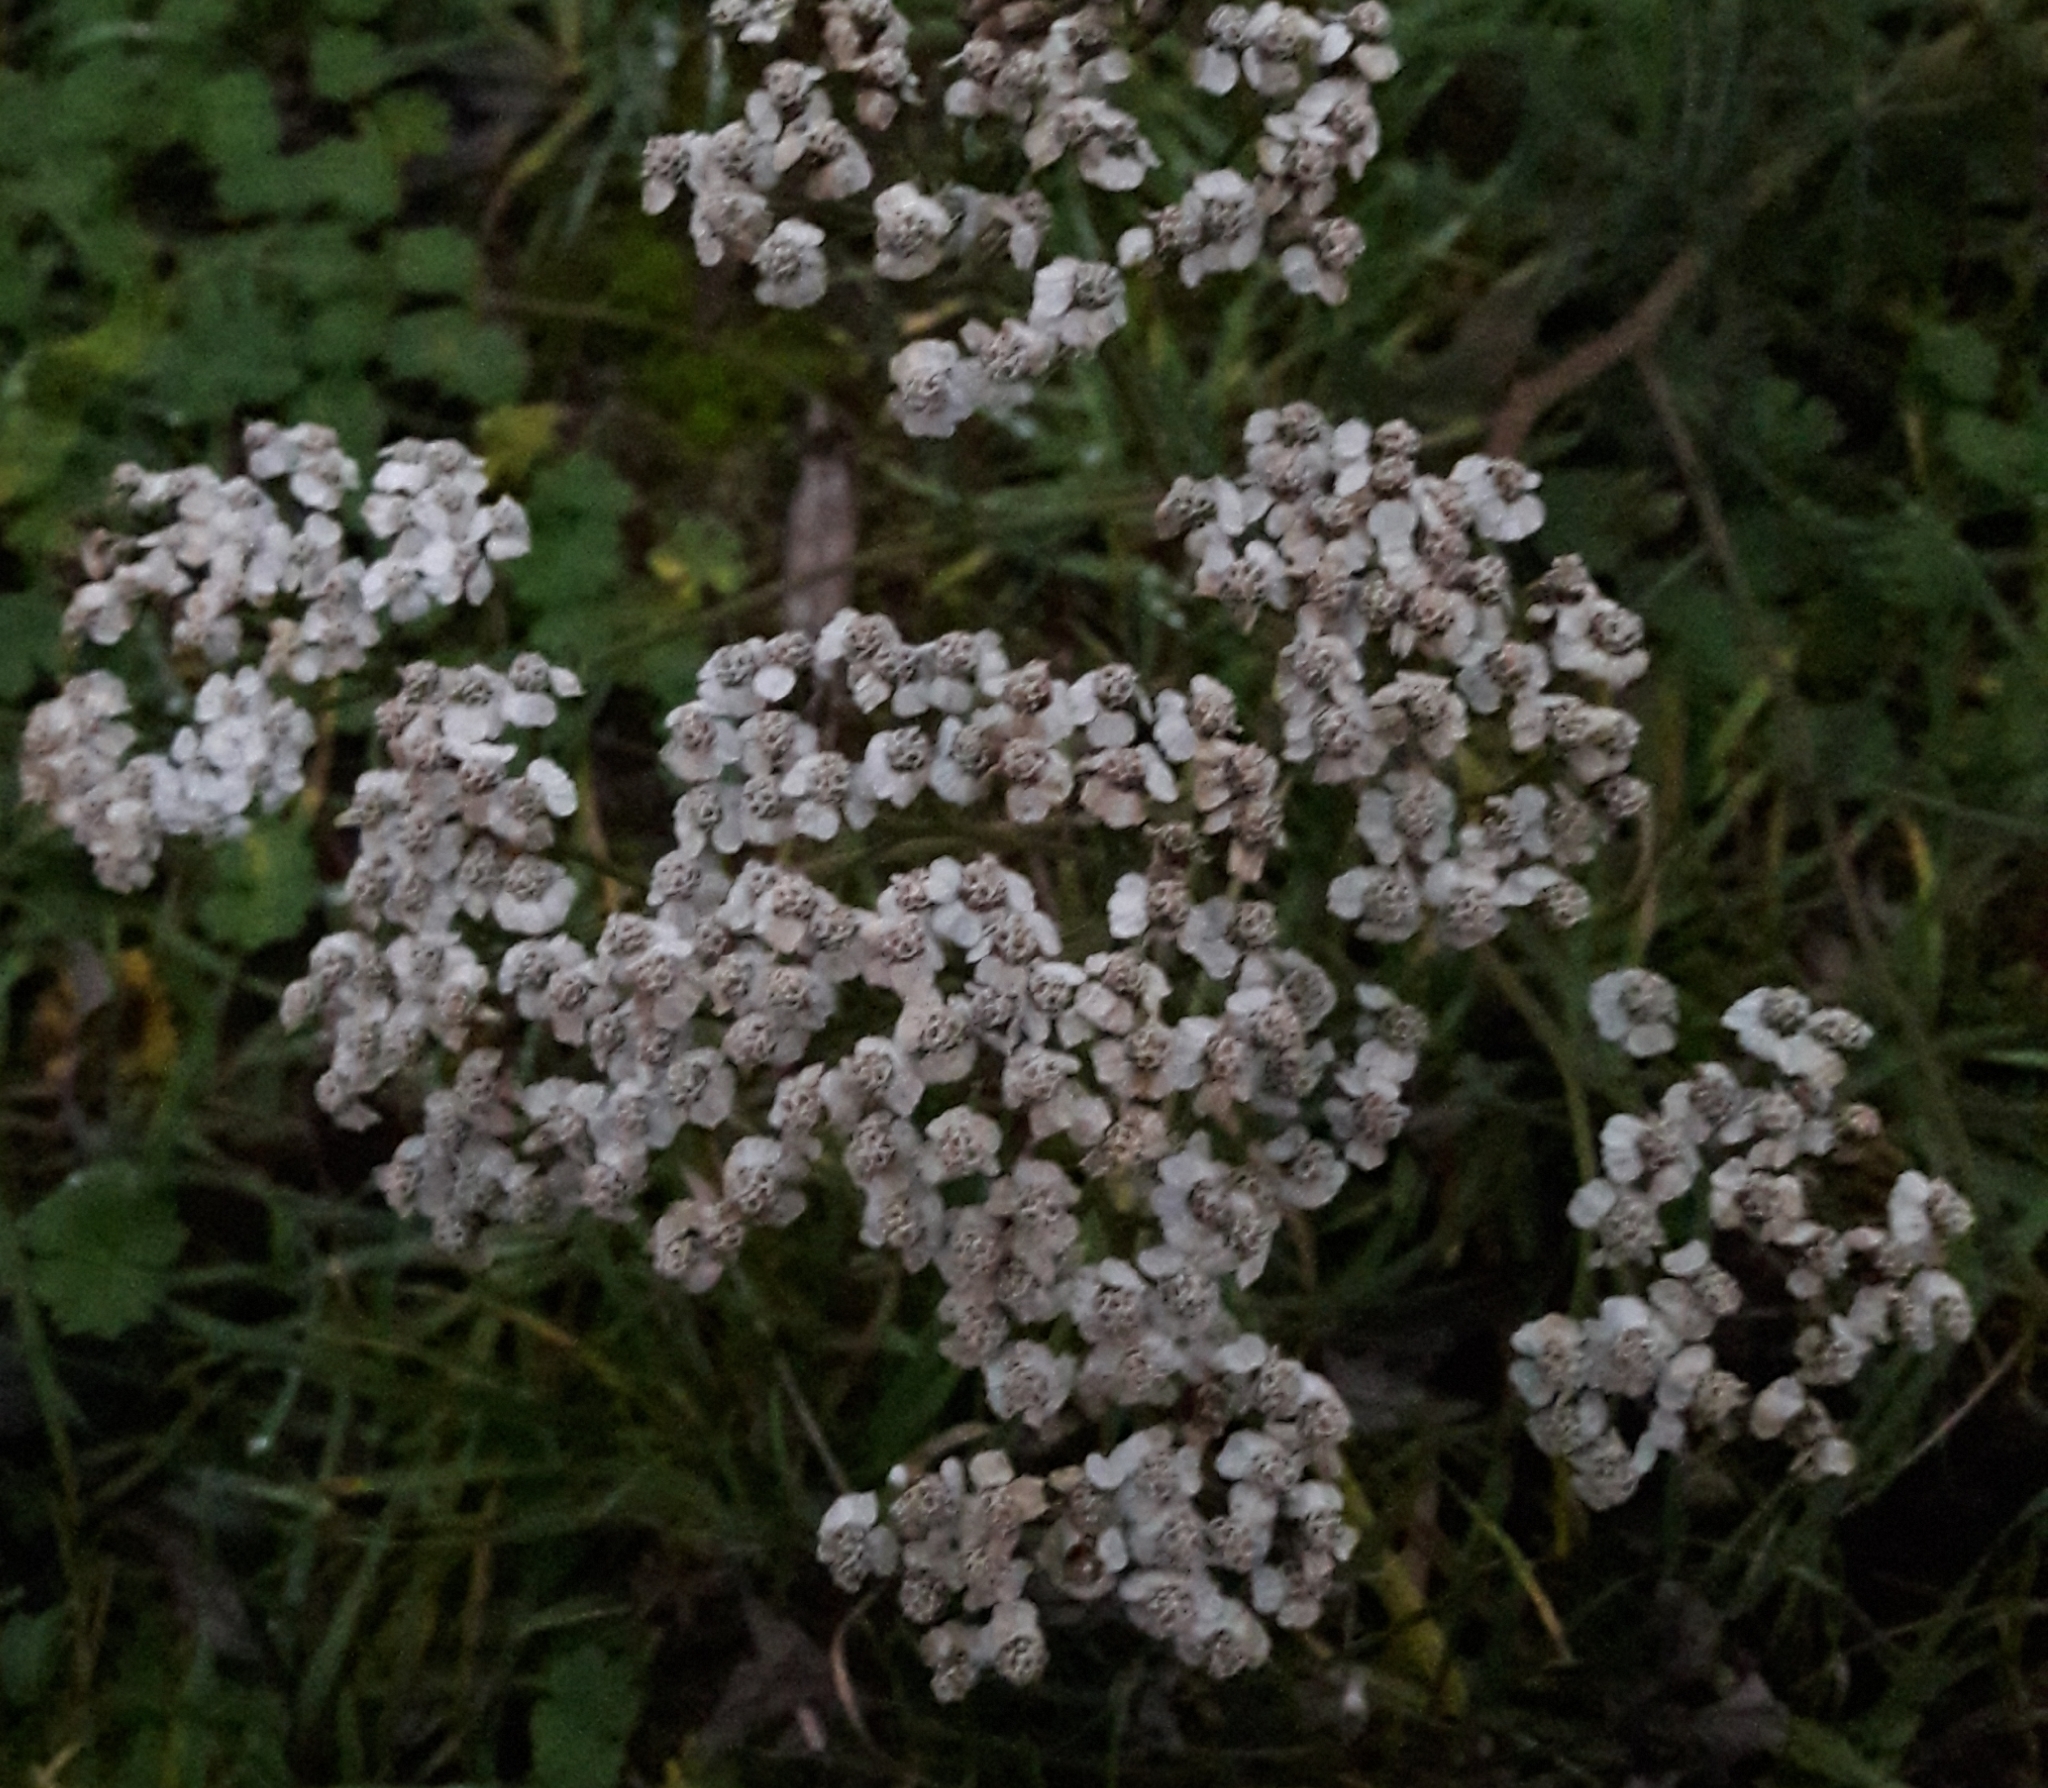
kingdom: Plantae
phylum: Tracheophyta
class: Magnoliopsida
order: Asterales
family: Asteraceae
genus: Achillea
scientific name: Achillea millefolium
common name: Yarrow
